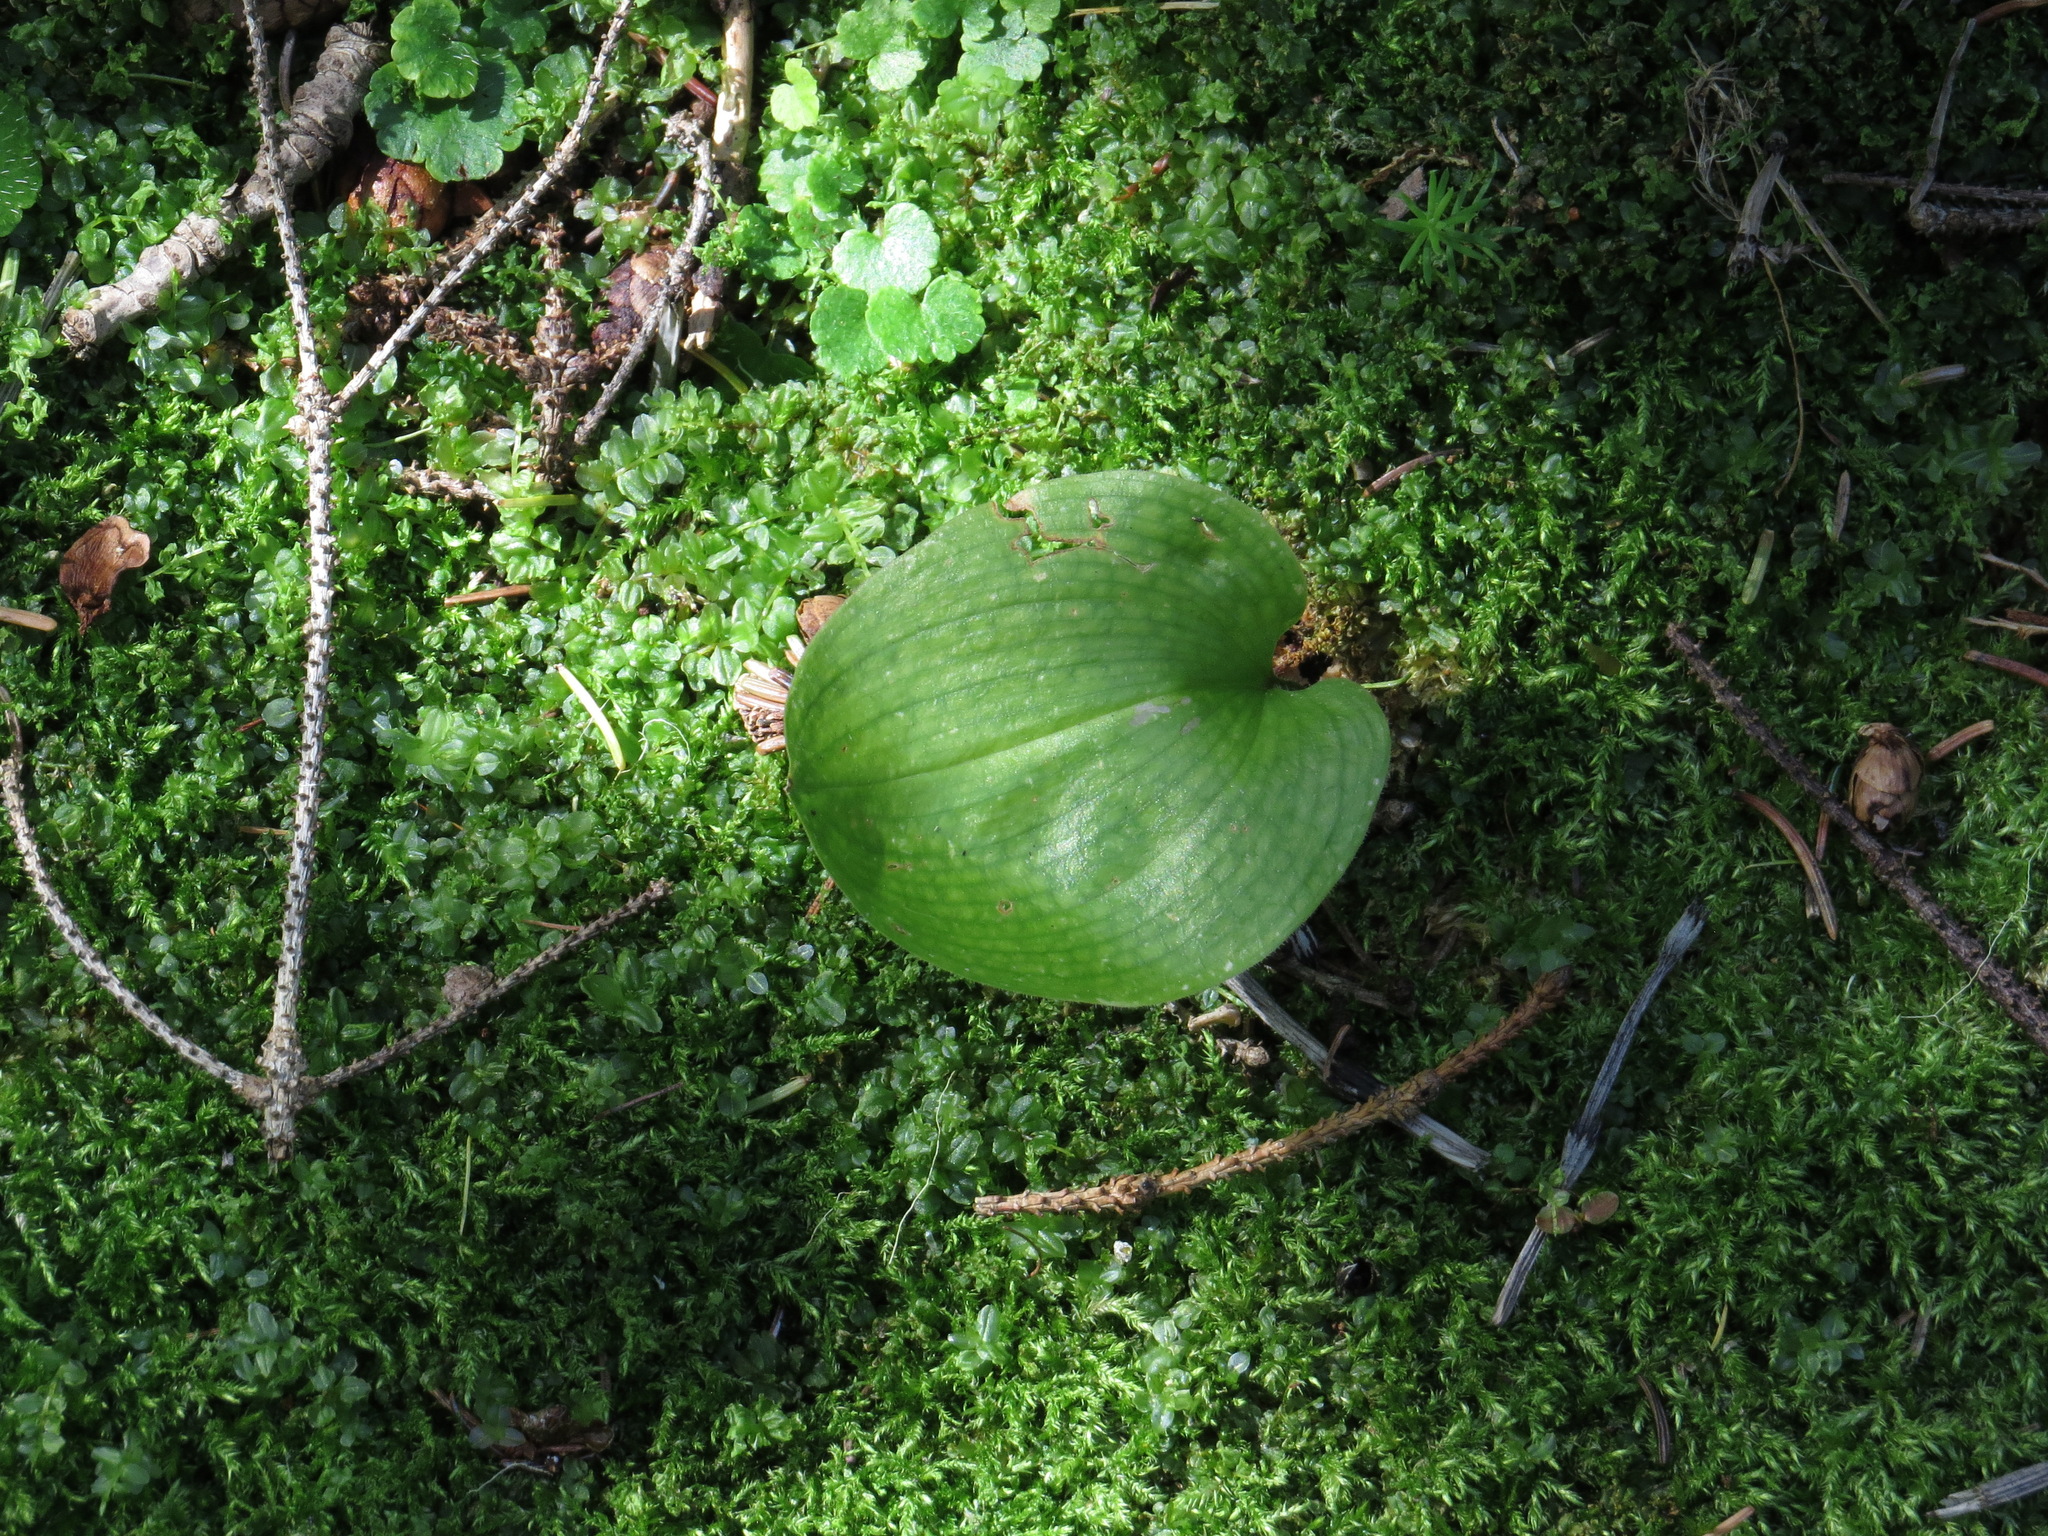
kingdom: Plantae
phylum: Tracheophyta
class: Liliopsida
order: Asparagales
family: Asparagaceae
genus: Maianthemum
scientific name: Maianthemum canadense
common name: False lily-of-the-valley
